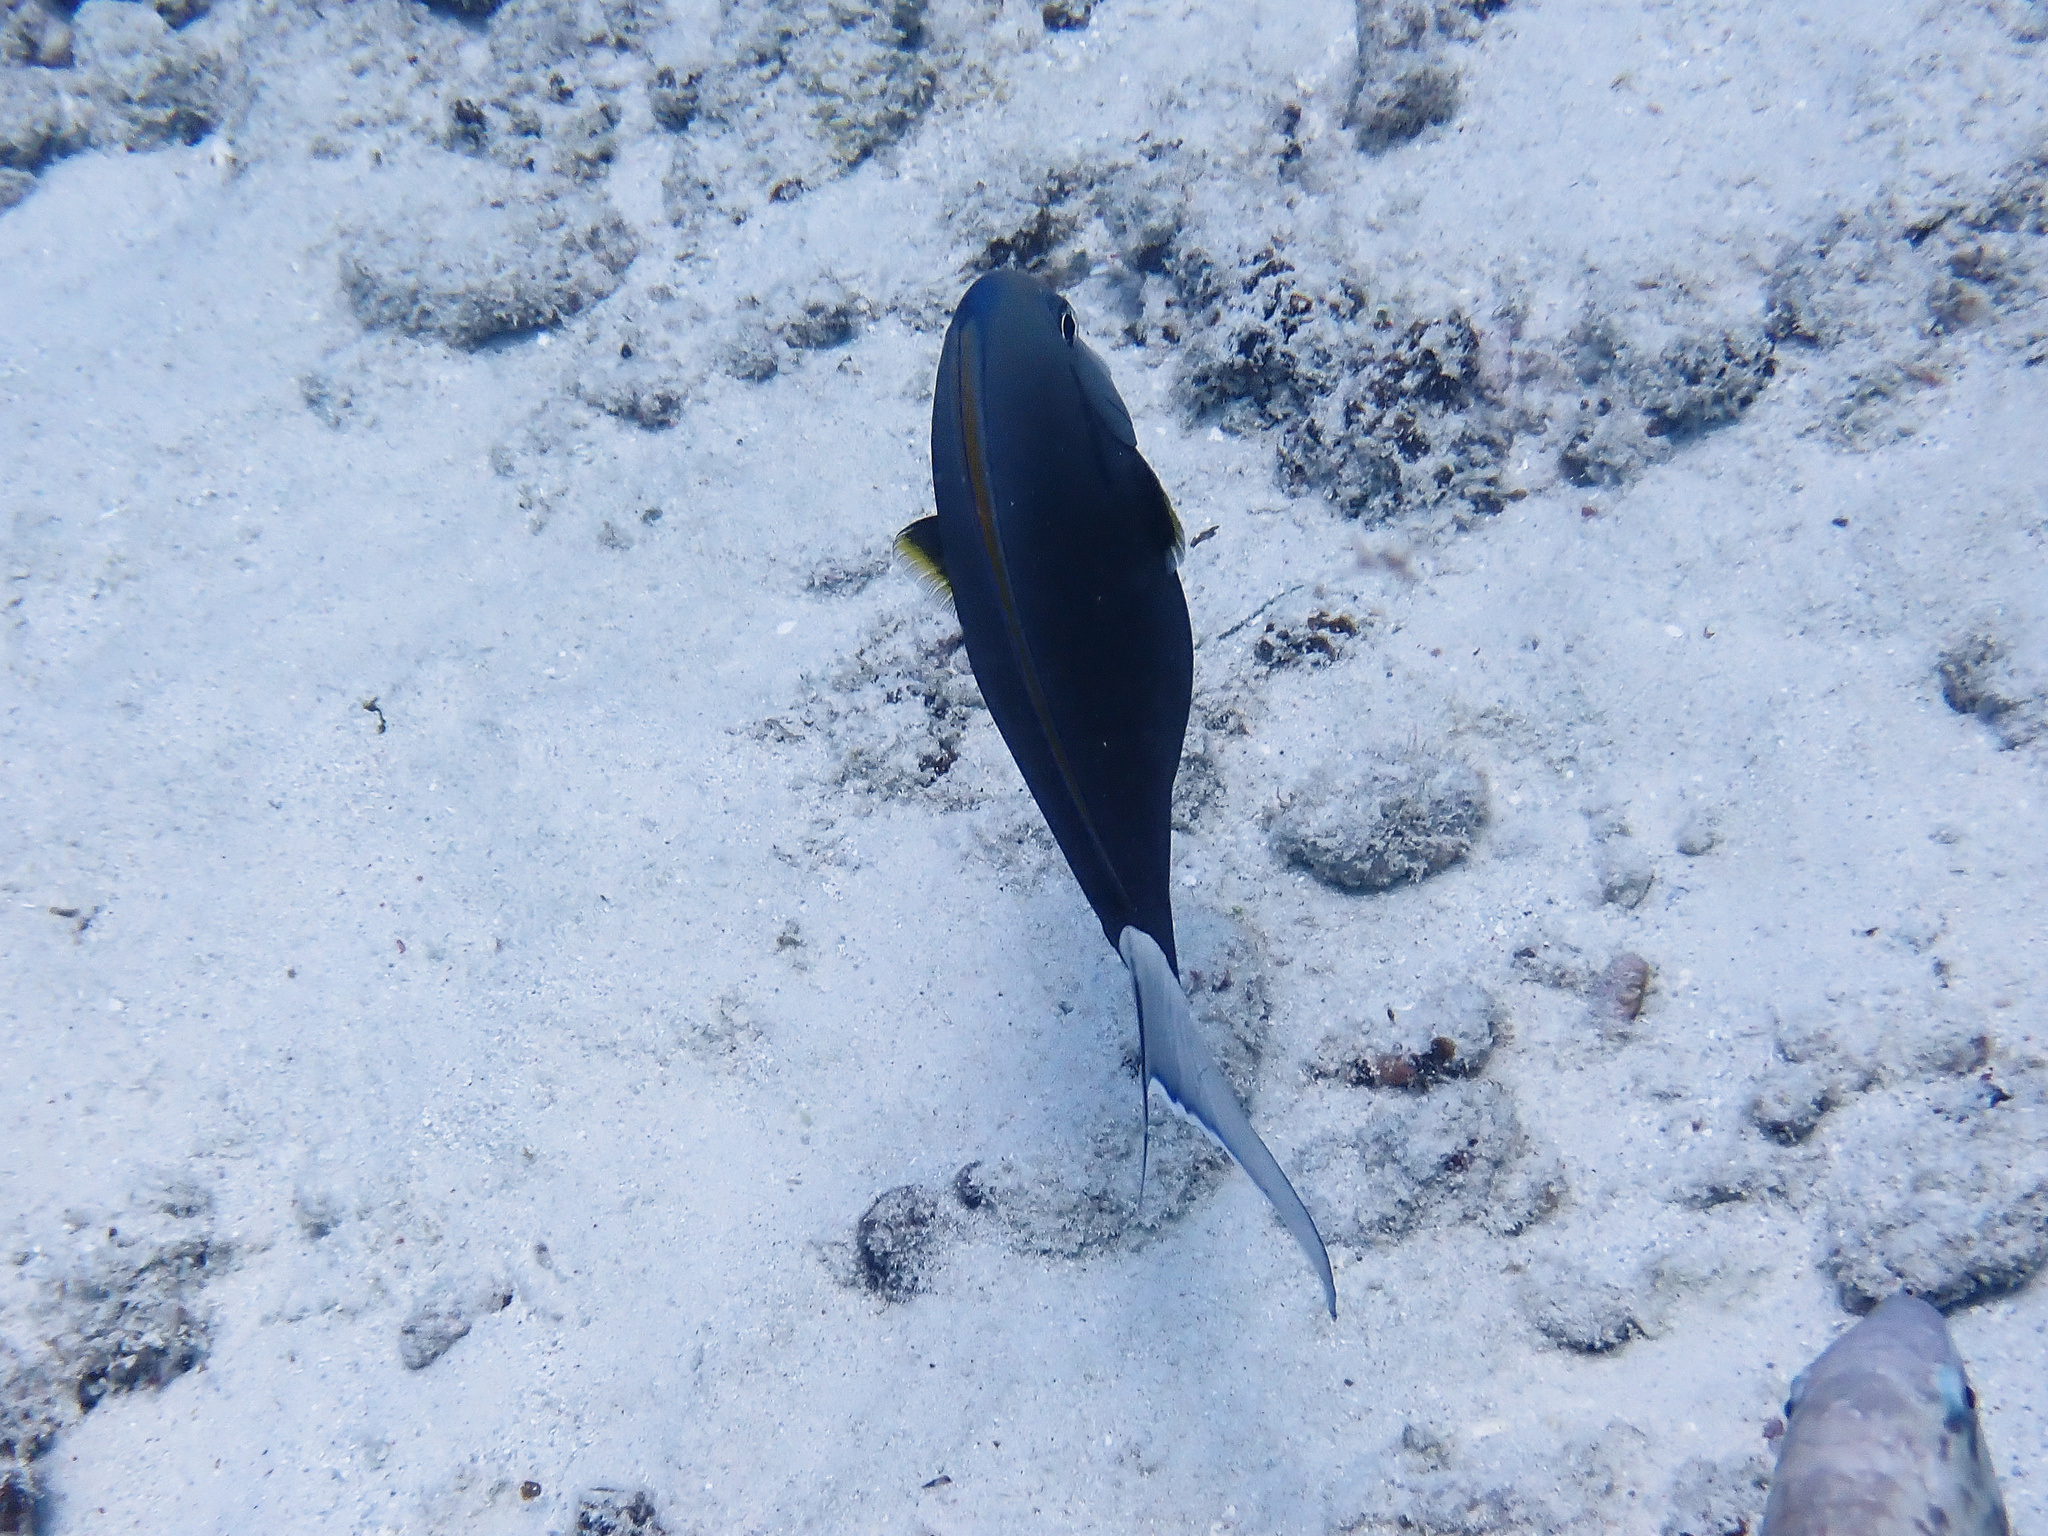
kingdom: Animalia
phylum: Chordata
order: Perciformes
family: Acanthuridae
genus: Acanthurus
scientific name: Acanthurus nigricauda
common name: Black-barred surgeonfish
